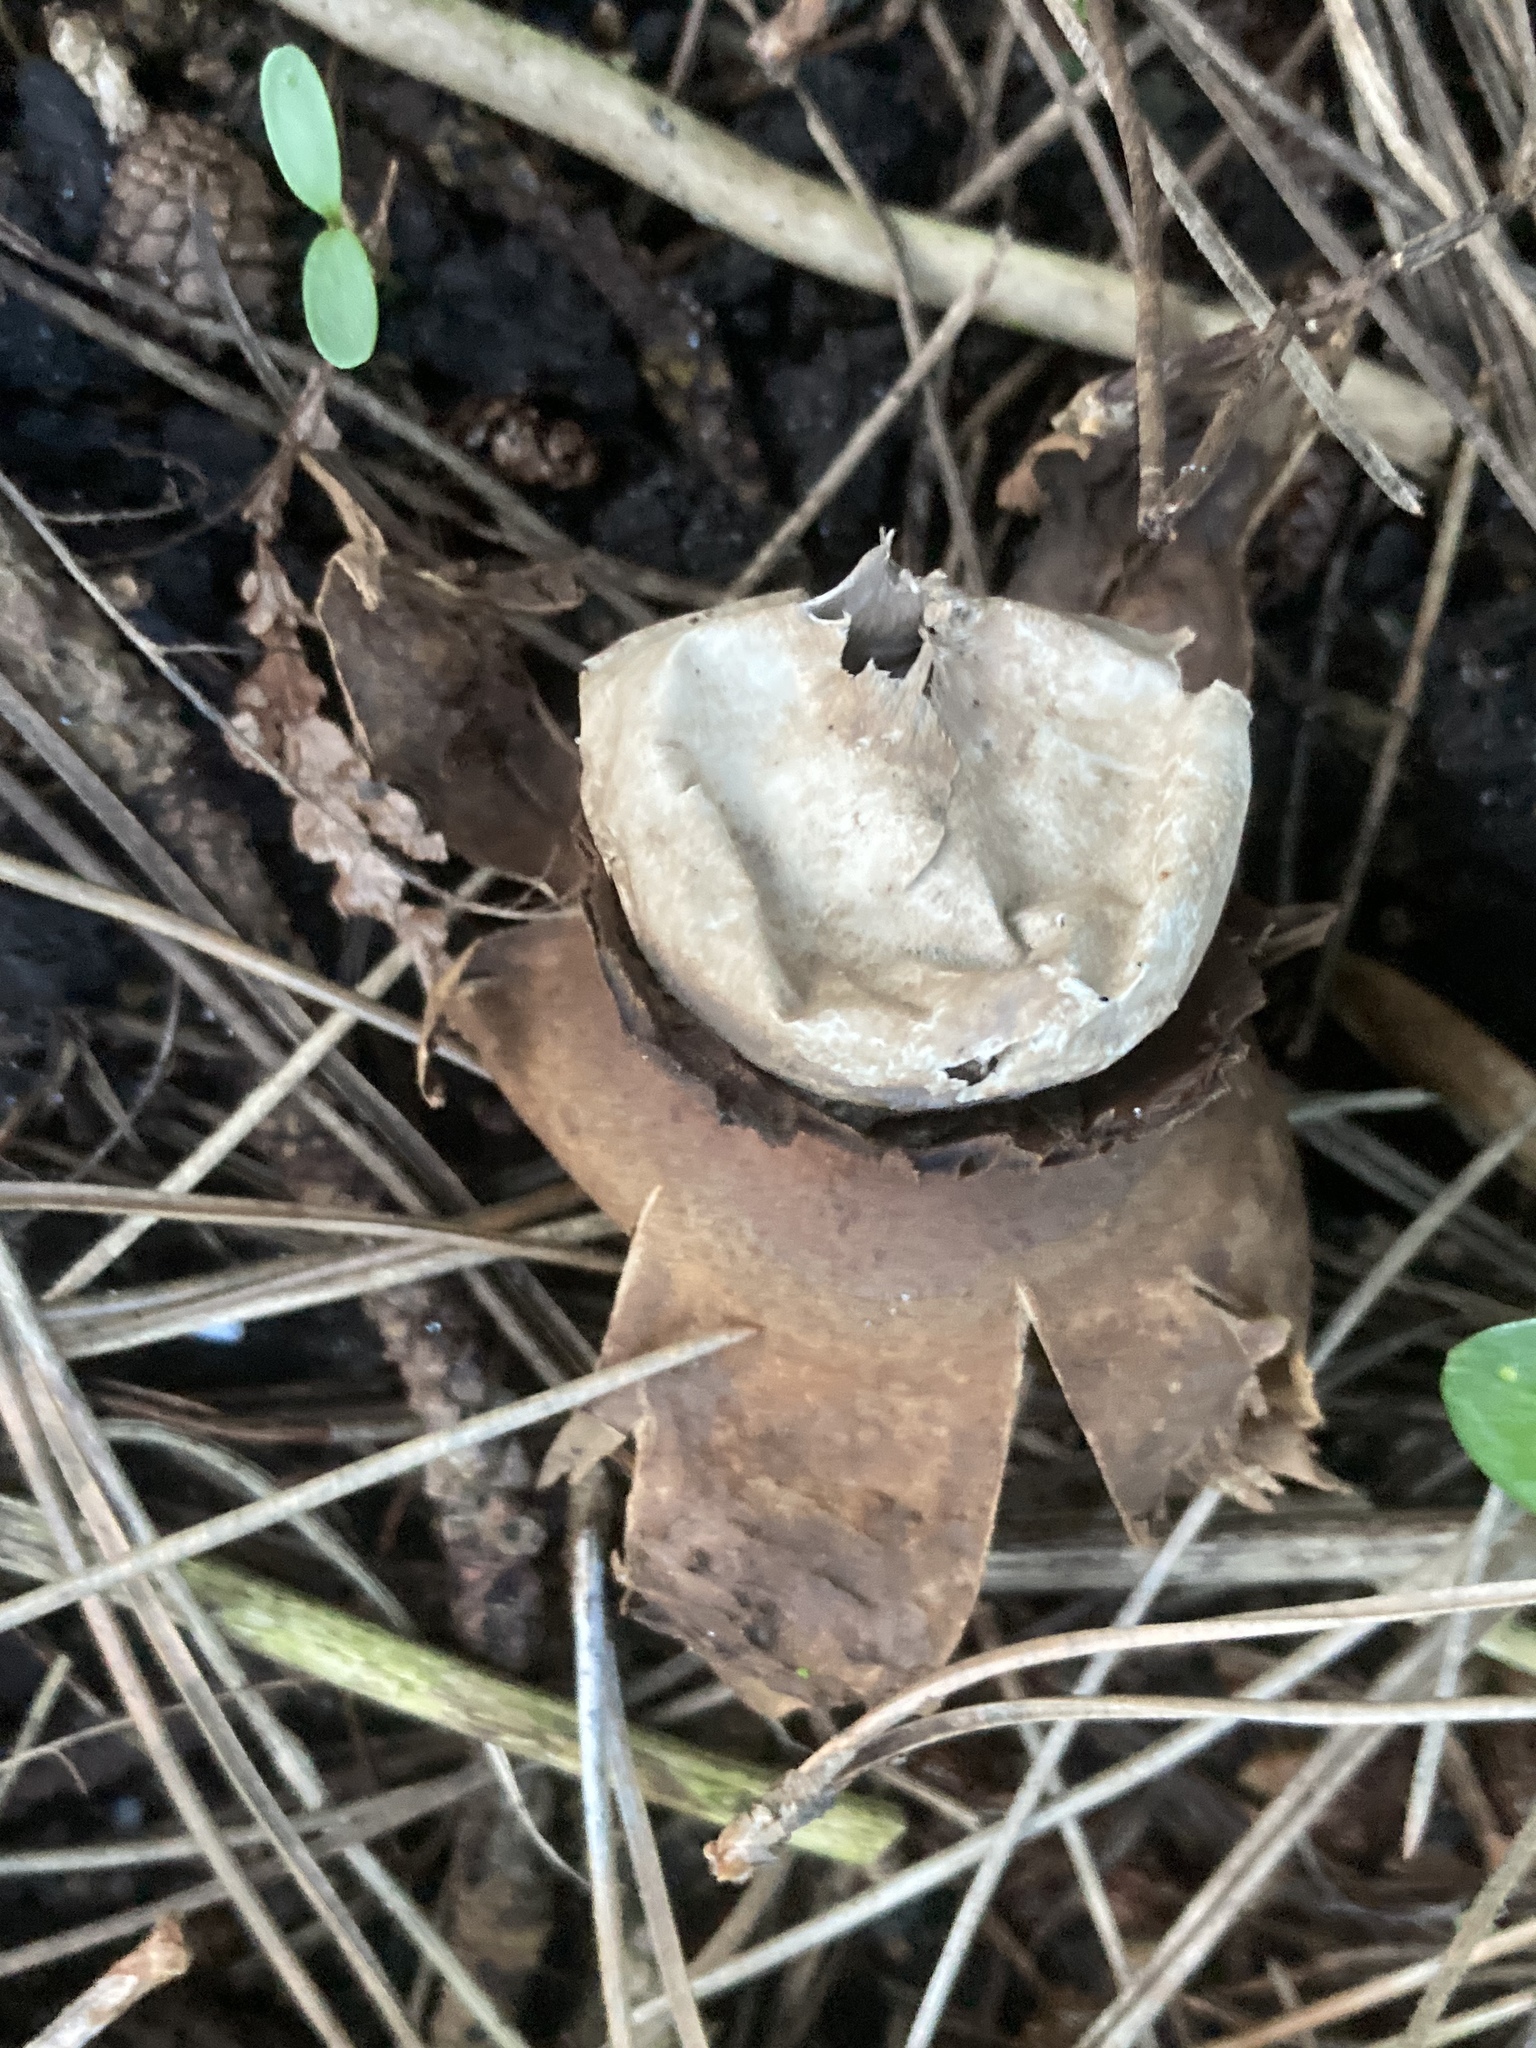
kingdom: Fungi
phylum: Basidiomycota
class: Agaricomycetes
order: Geastrales
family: Geastraceae
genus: Geastrum
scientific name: Geastrum triplex
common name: Collared earthstar
